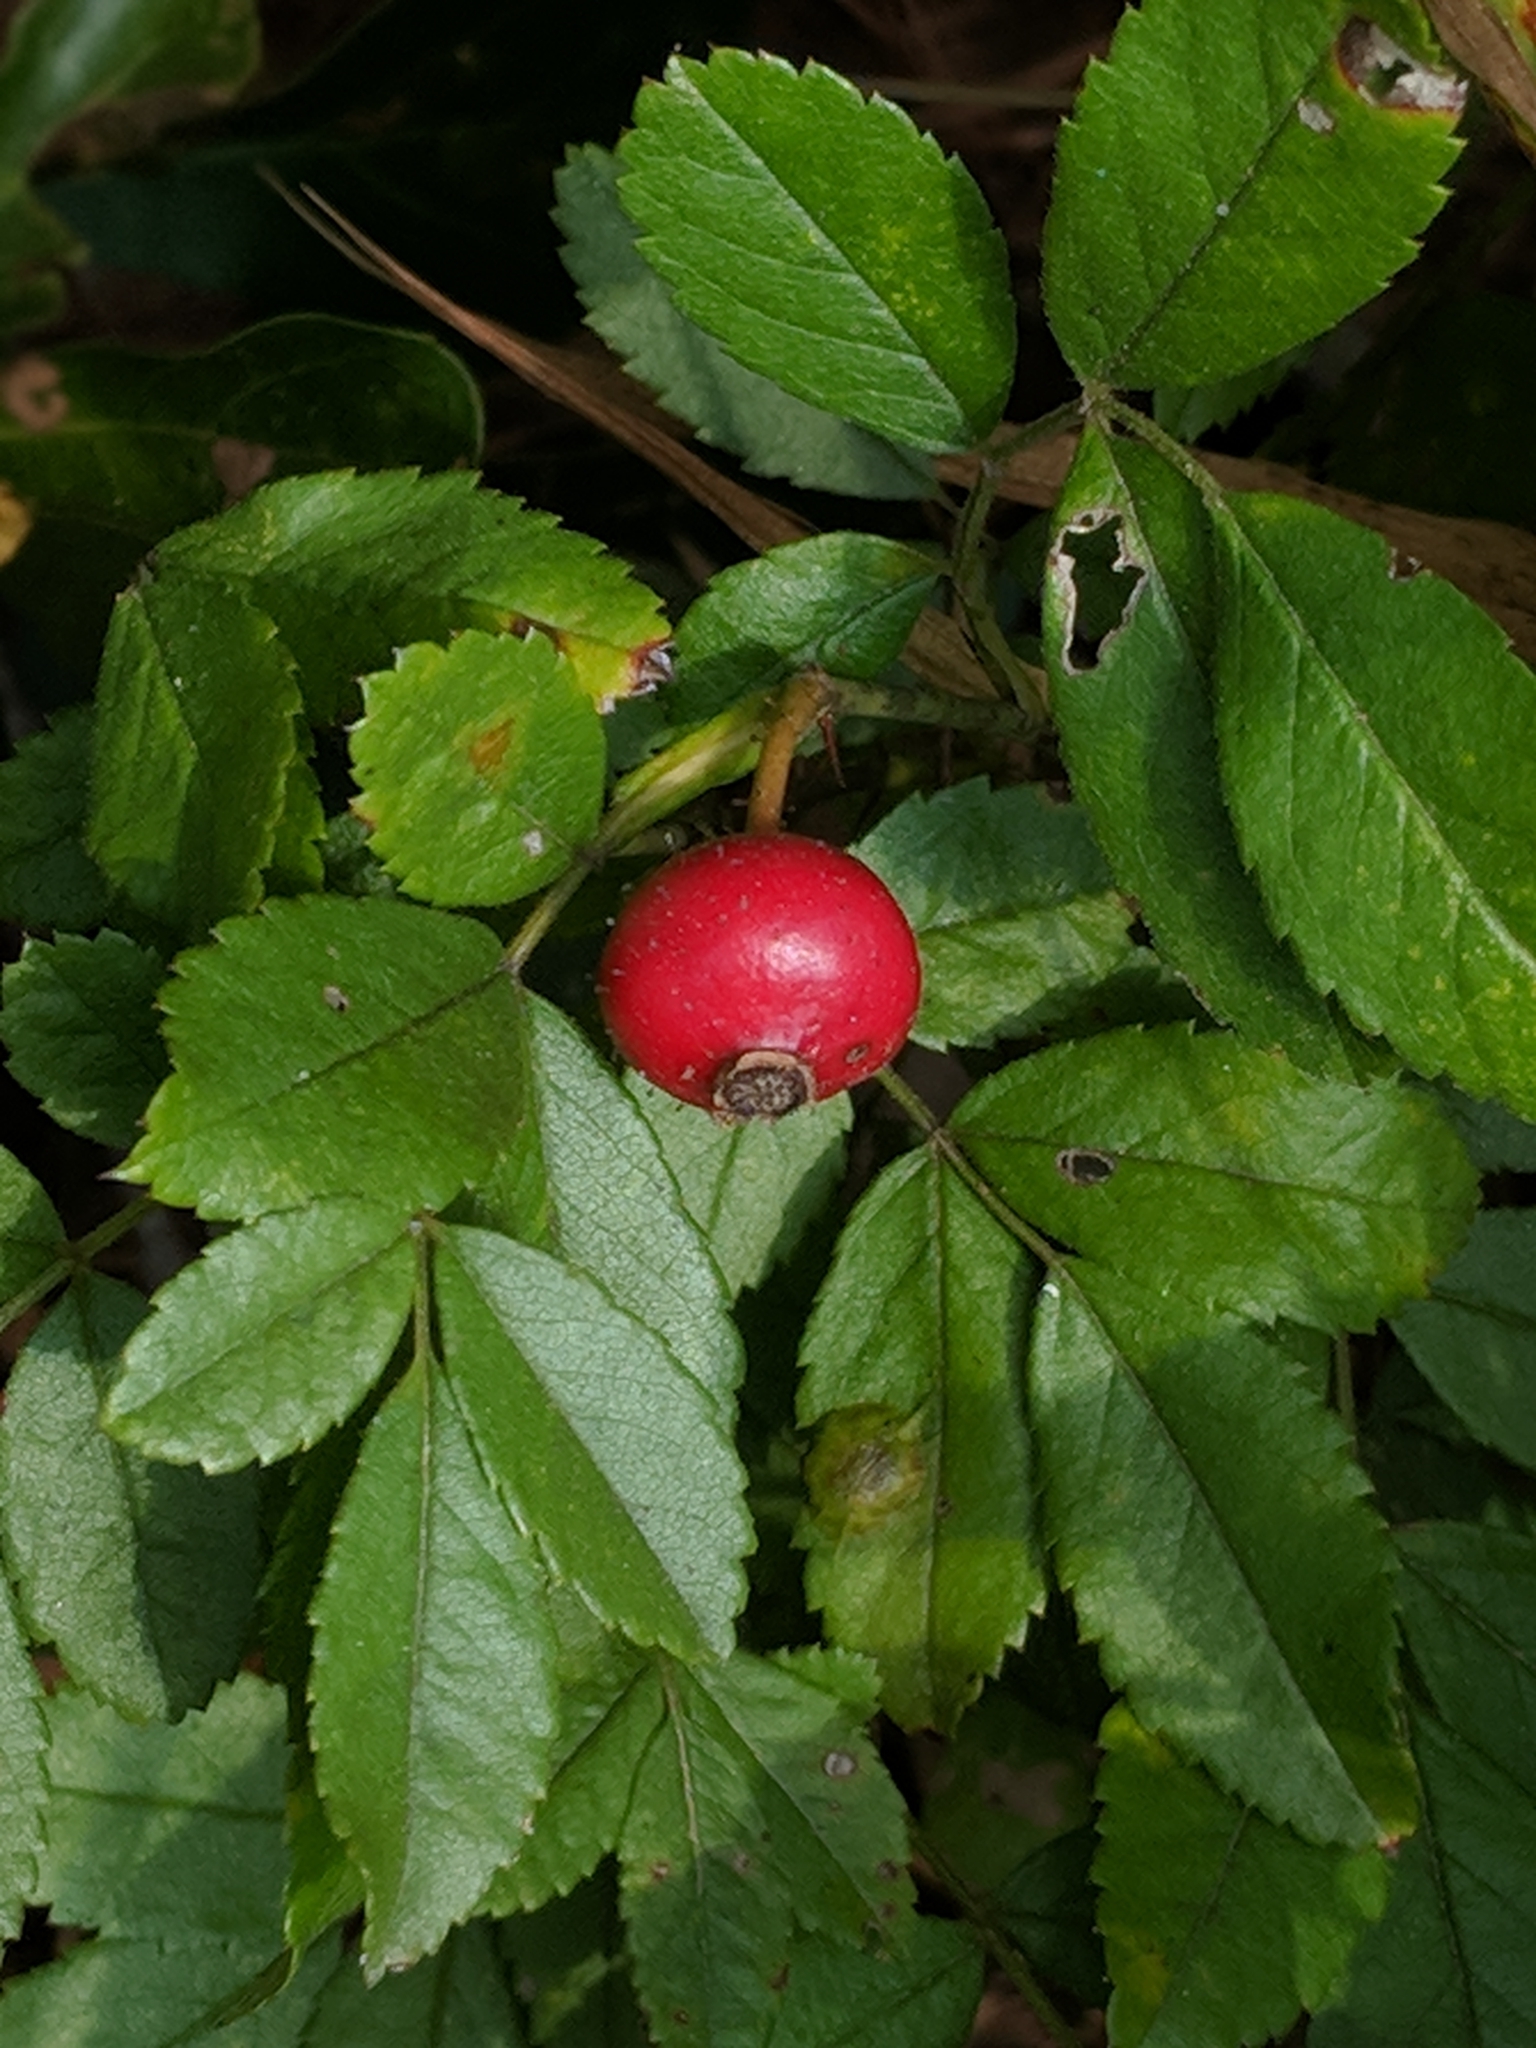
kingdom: Plantae
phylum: Tracheophyta
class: Magnoliopsida
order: Rosales
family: Rosaceae
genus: Rosa
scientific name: Rosa carolina
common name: Pasture rose
